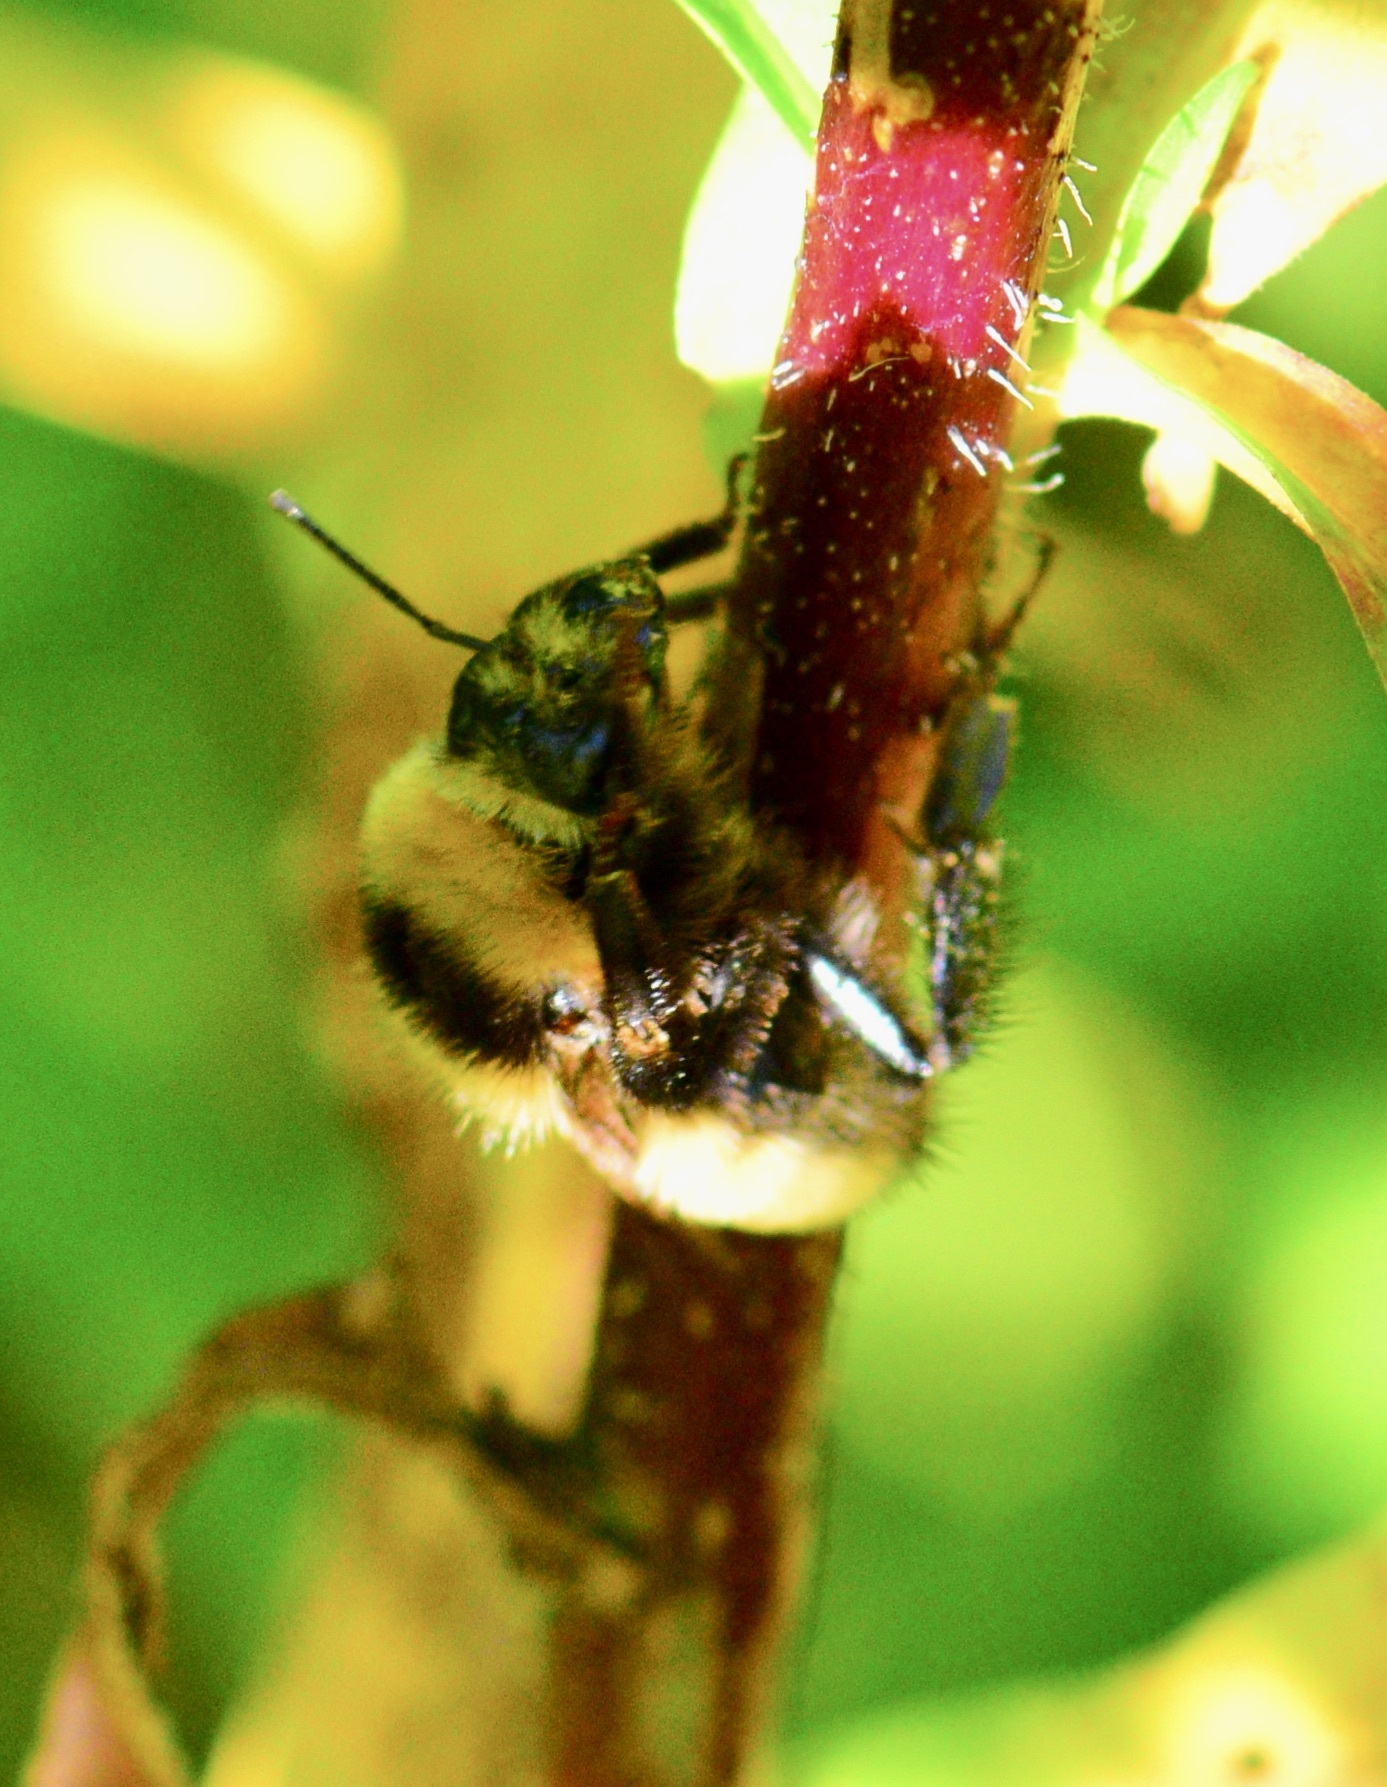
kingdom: Animalia
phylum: Arthropoda
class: Insecta
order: Hymenoptera
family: Apidae
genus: Bombus
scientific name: Bombus borealis
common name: Northern amber bumble bee
